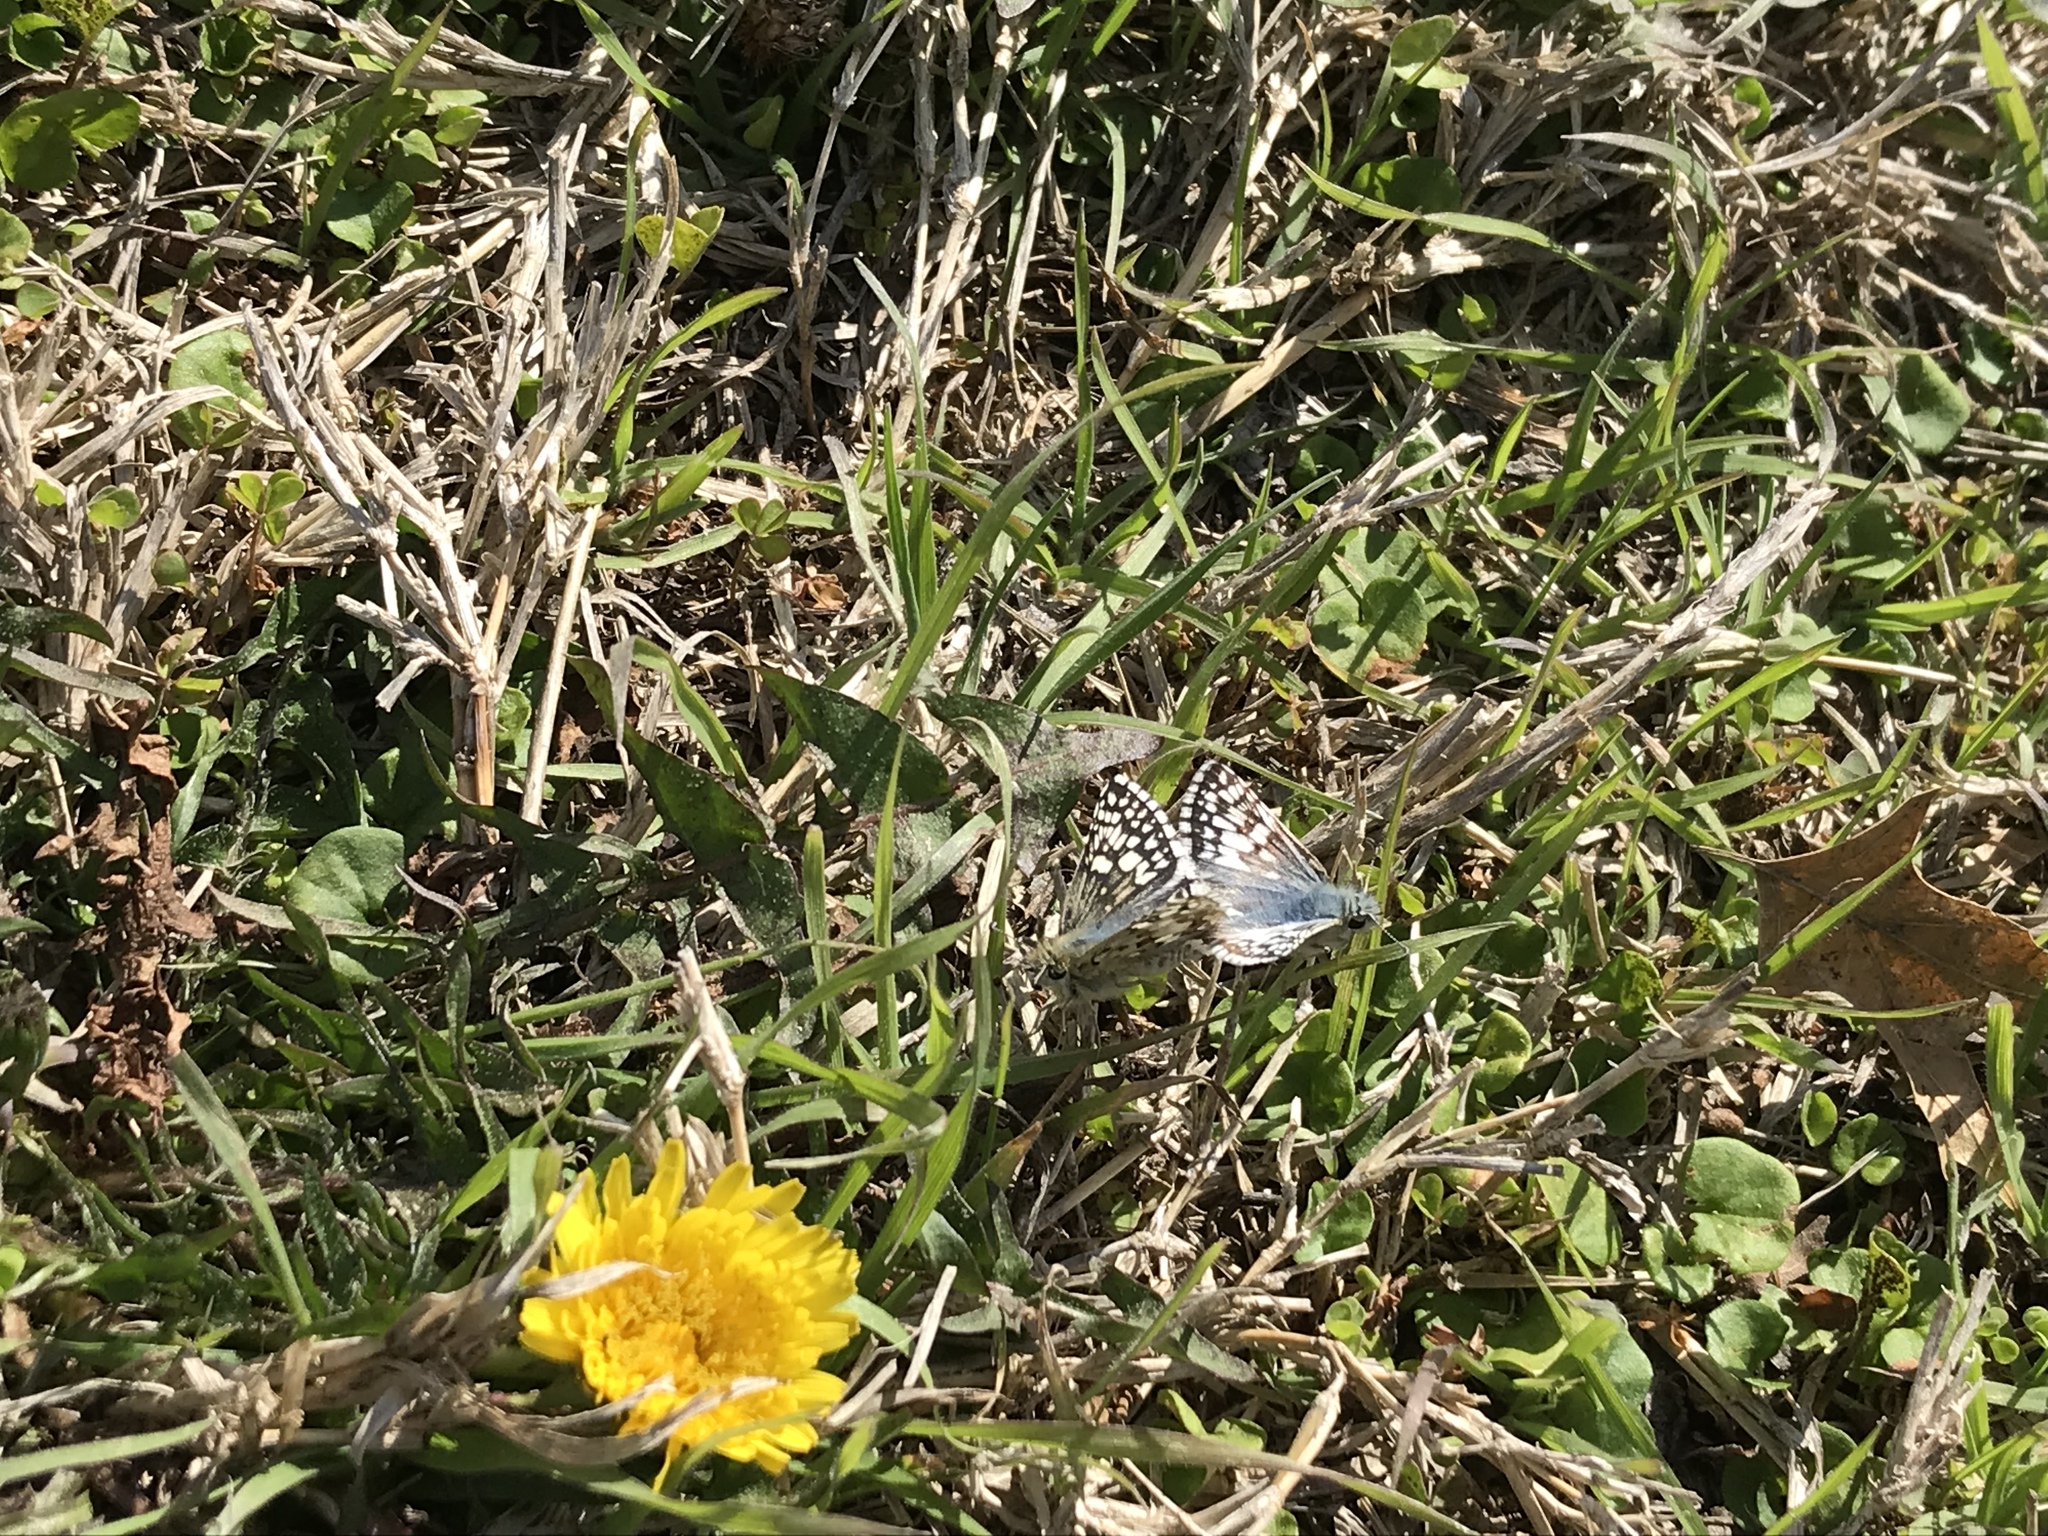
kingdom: Animalia
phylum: Arthropoda
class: Insecta
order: Lepidoptera
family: Hesperiidae
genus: Burnsius
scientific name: Burnsius communis
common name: Common checkered-skipper
